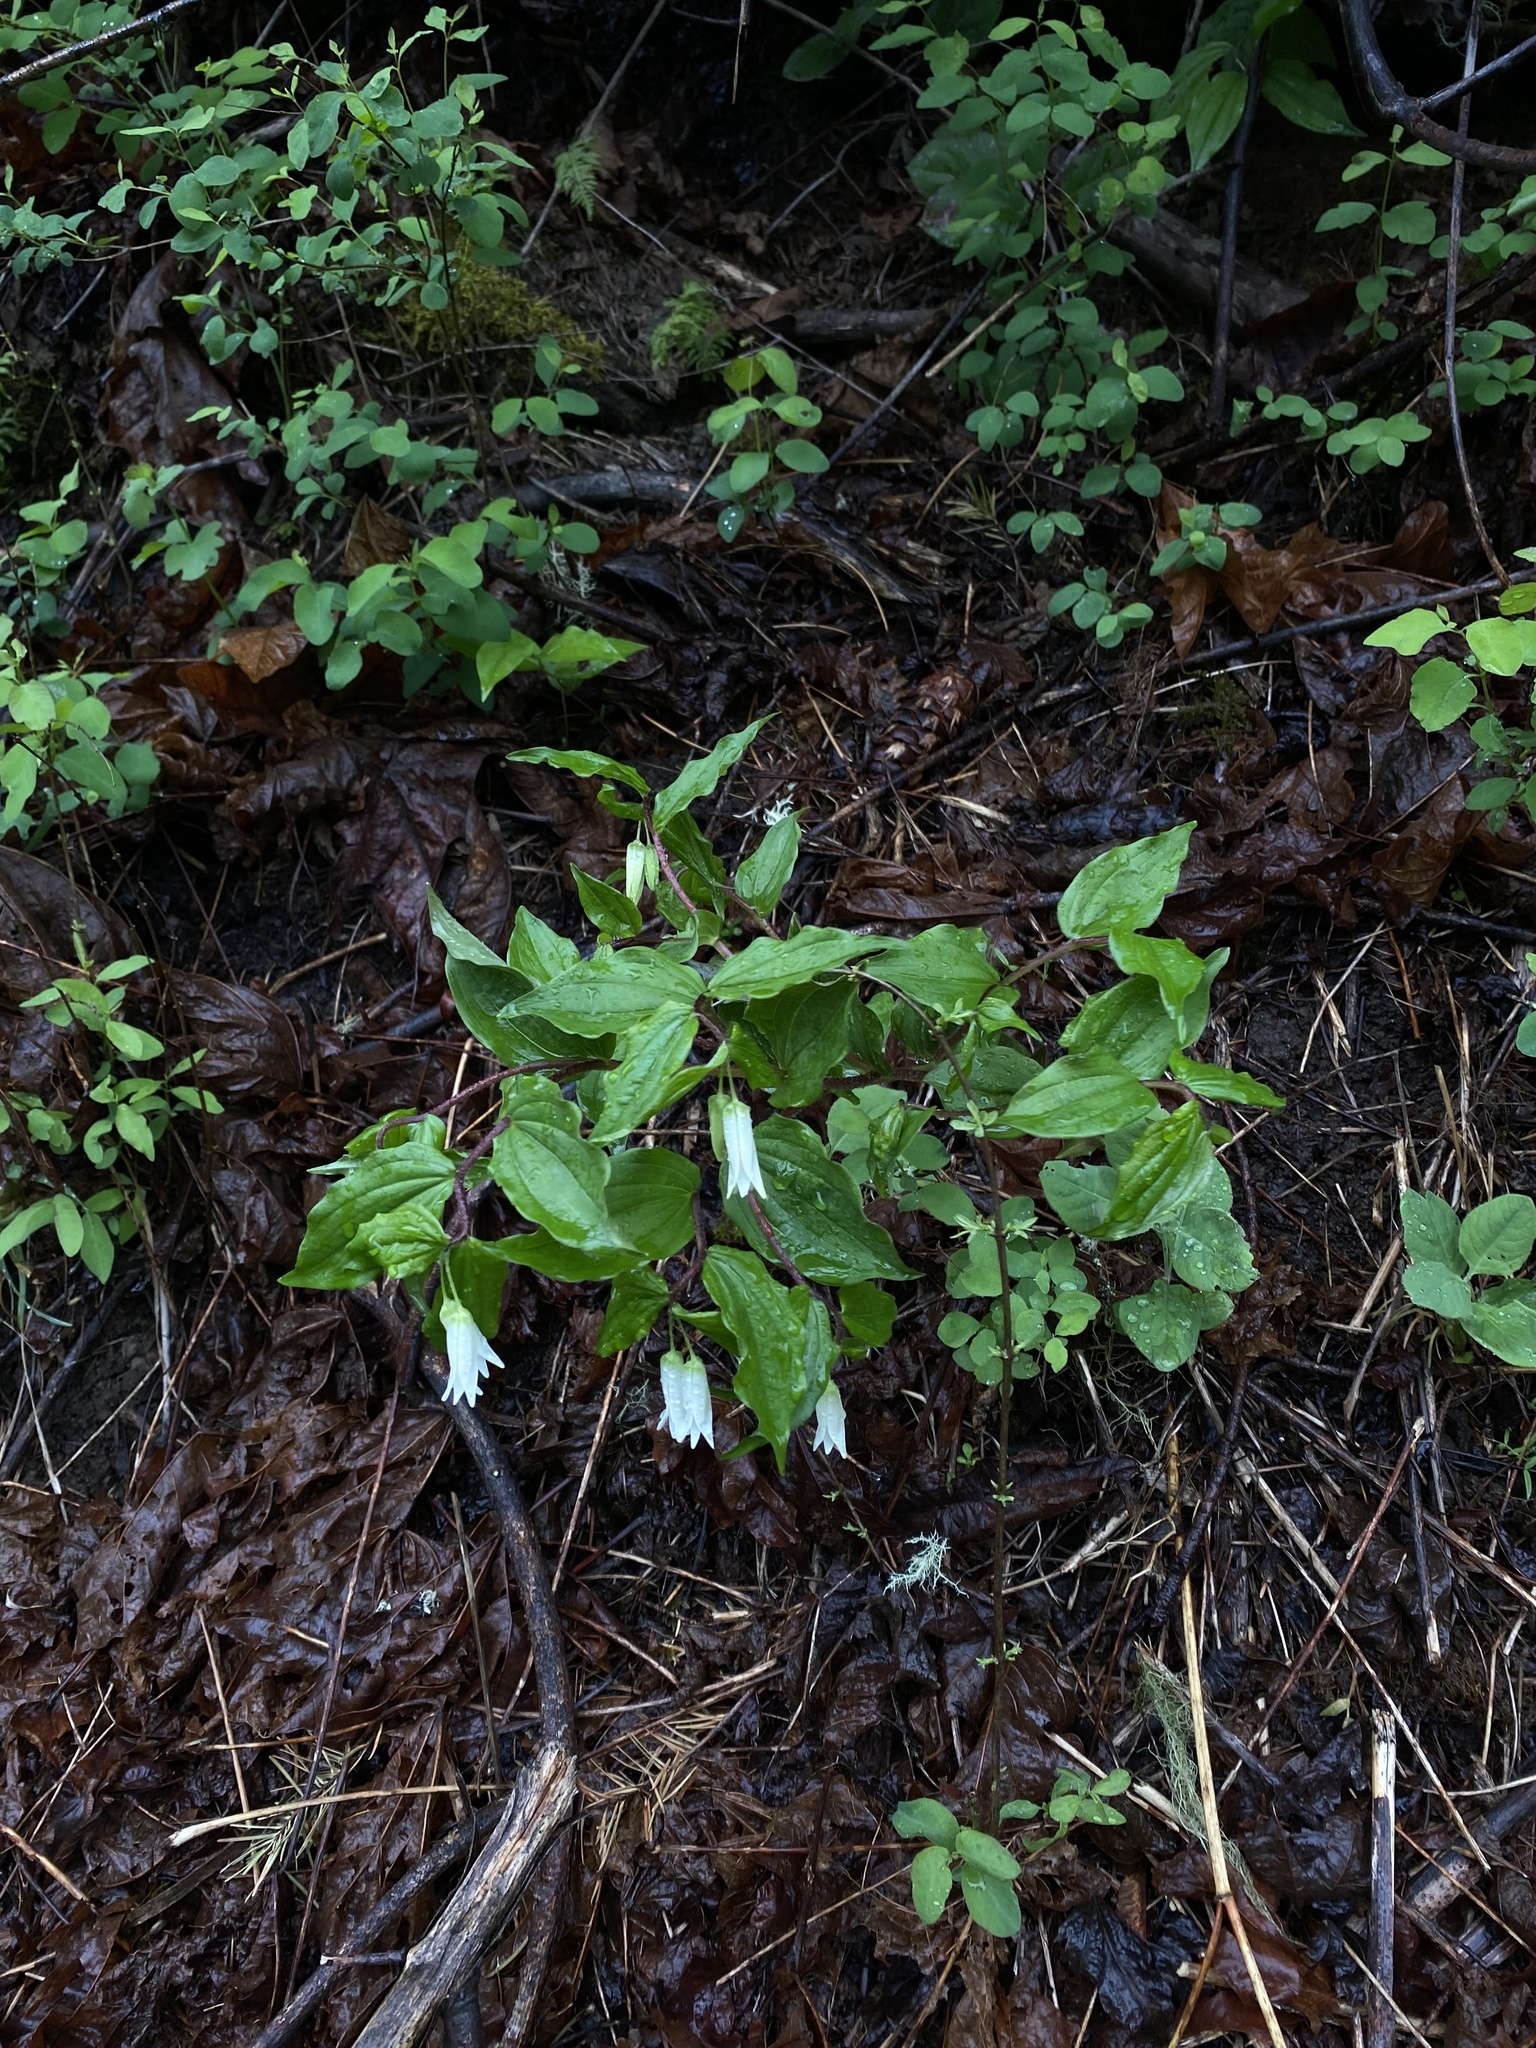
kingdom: Plantae
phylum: Tracheophyta
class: Liliopsida
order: Liliales
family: Liliaceae
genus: Prosartes
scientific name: Prosartes smithii
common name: Fairy-lantern
